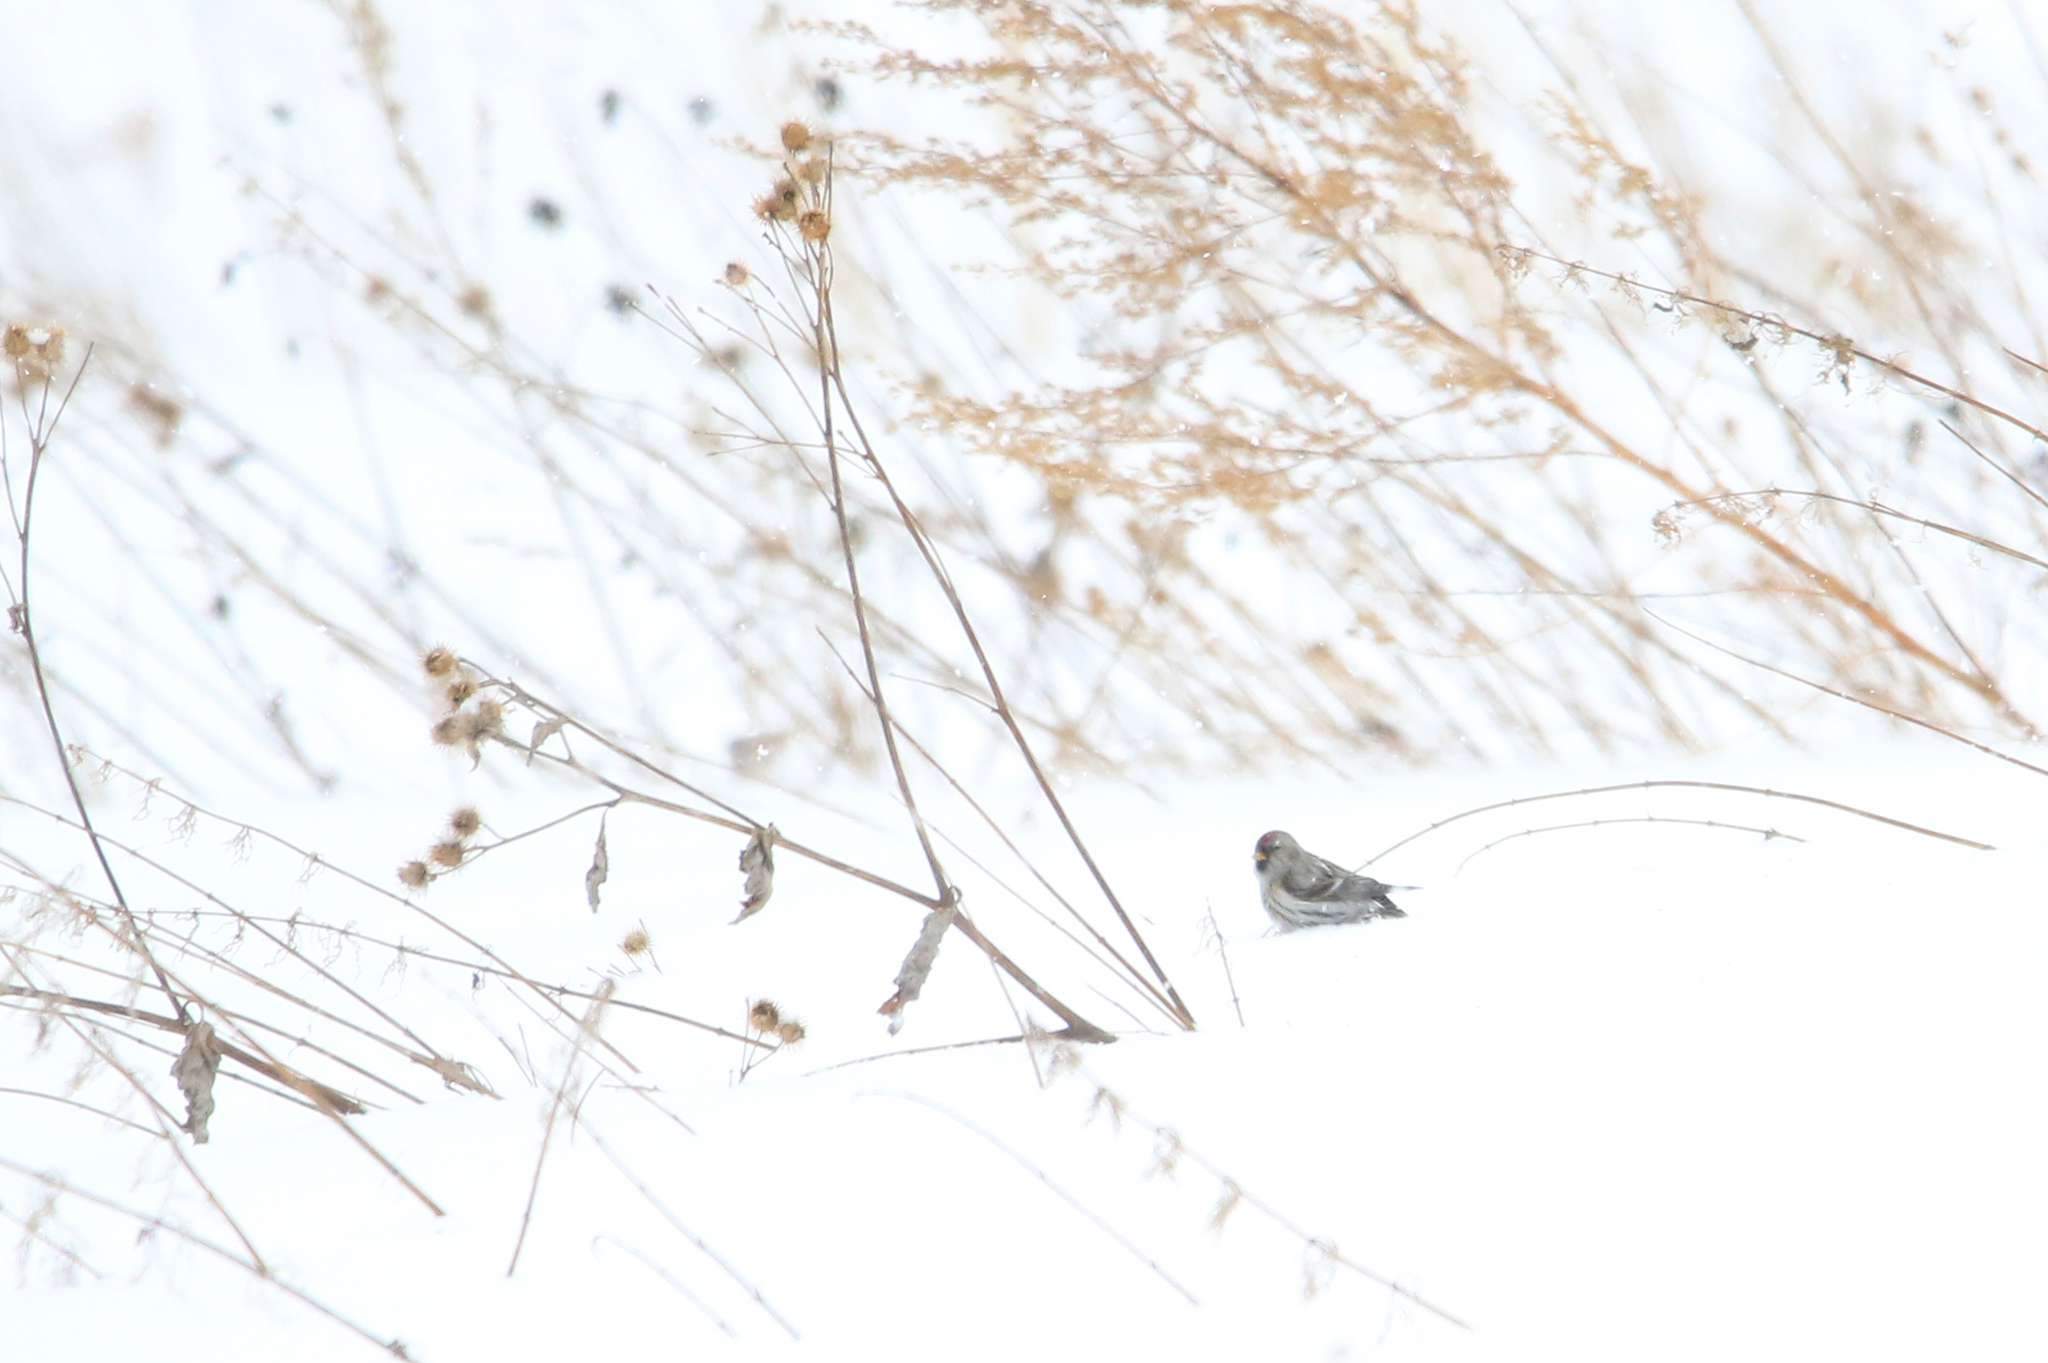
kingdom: Animalia
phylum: Chordata
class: Aves
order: Passeriformes
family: Fringillidae
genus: Acanthis
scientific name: Acanthis flammea
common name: Common redpoll
